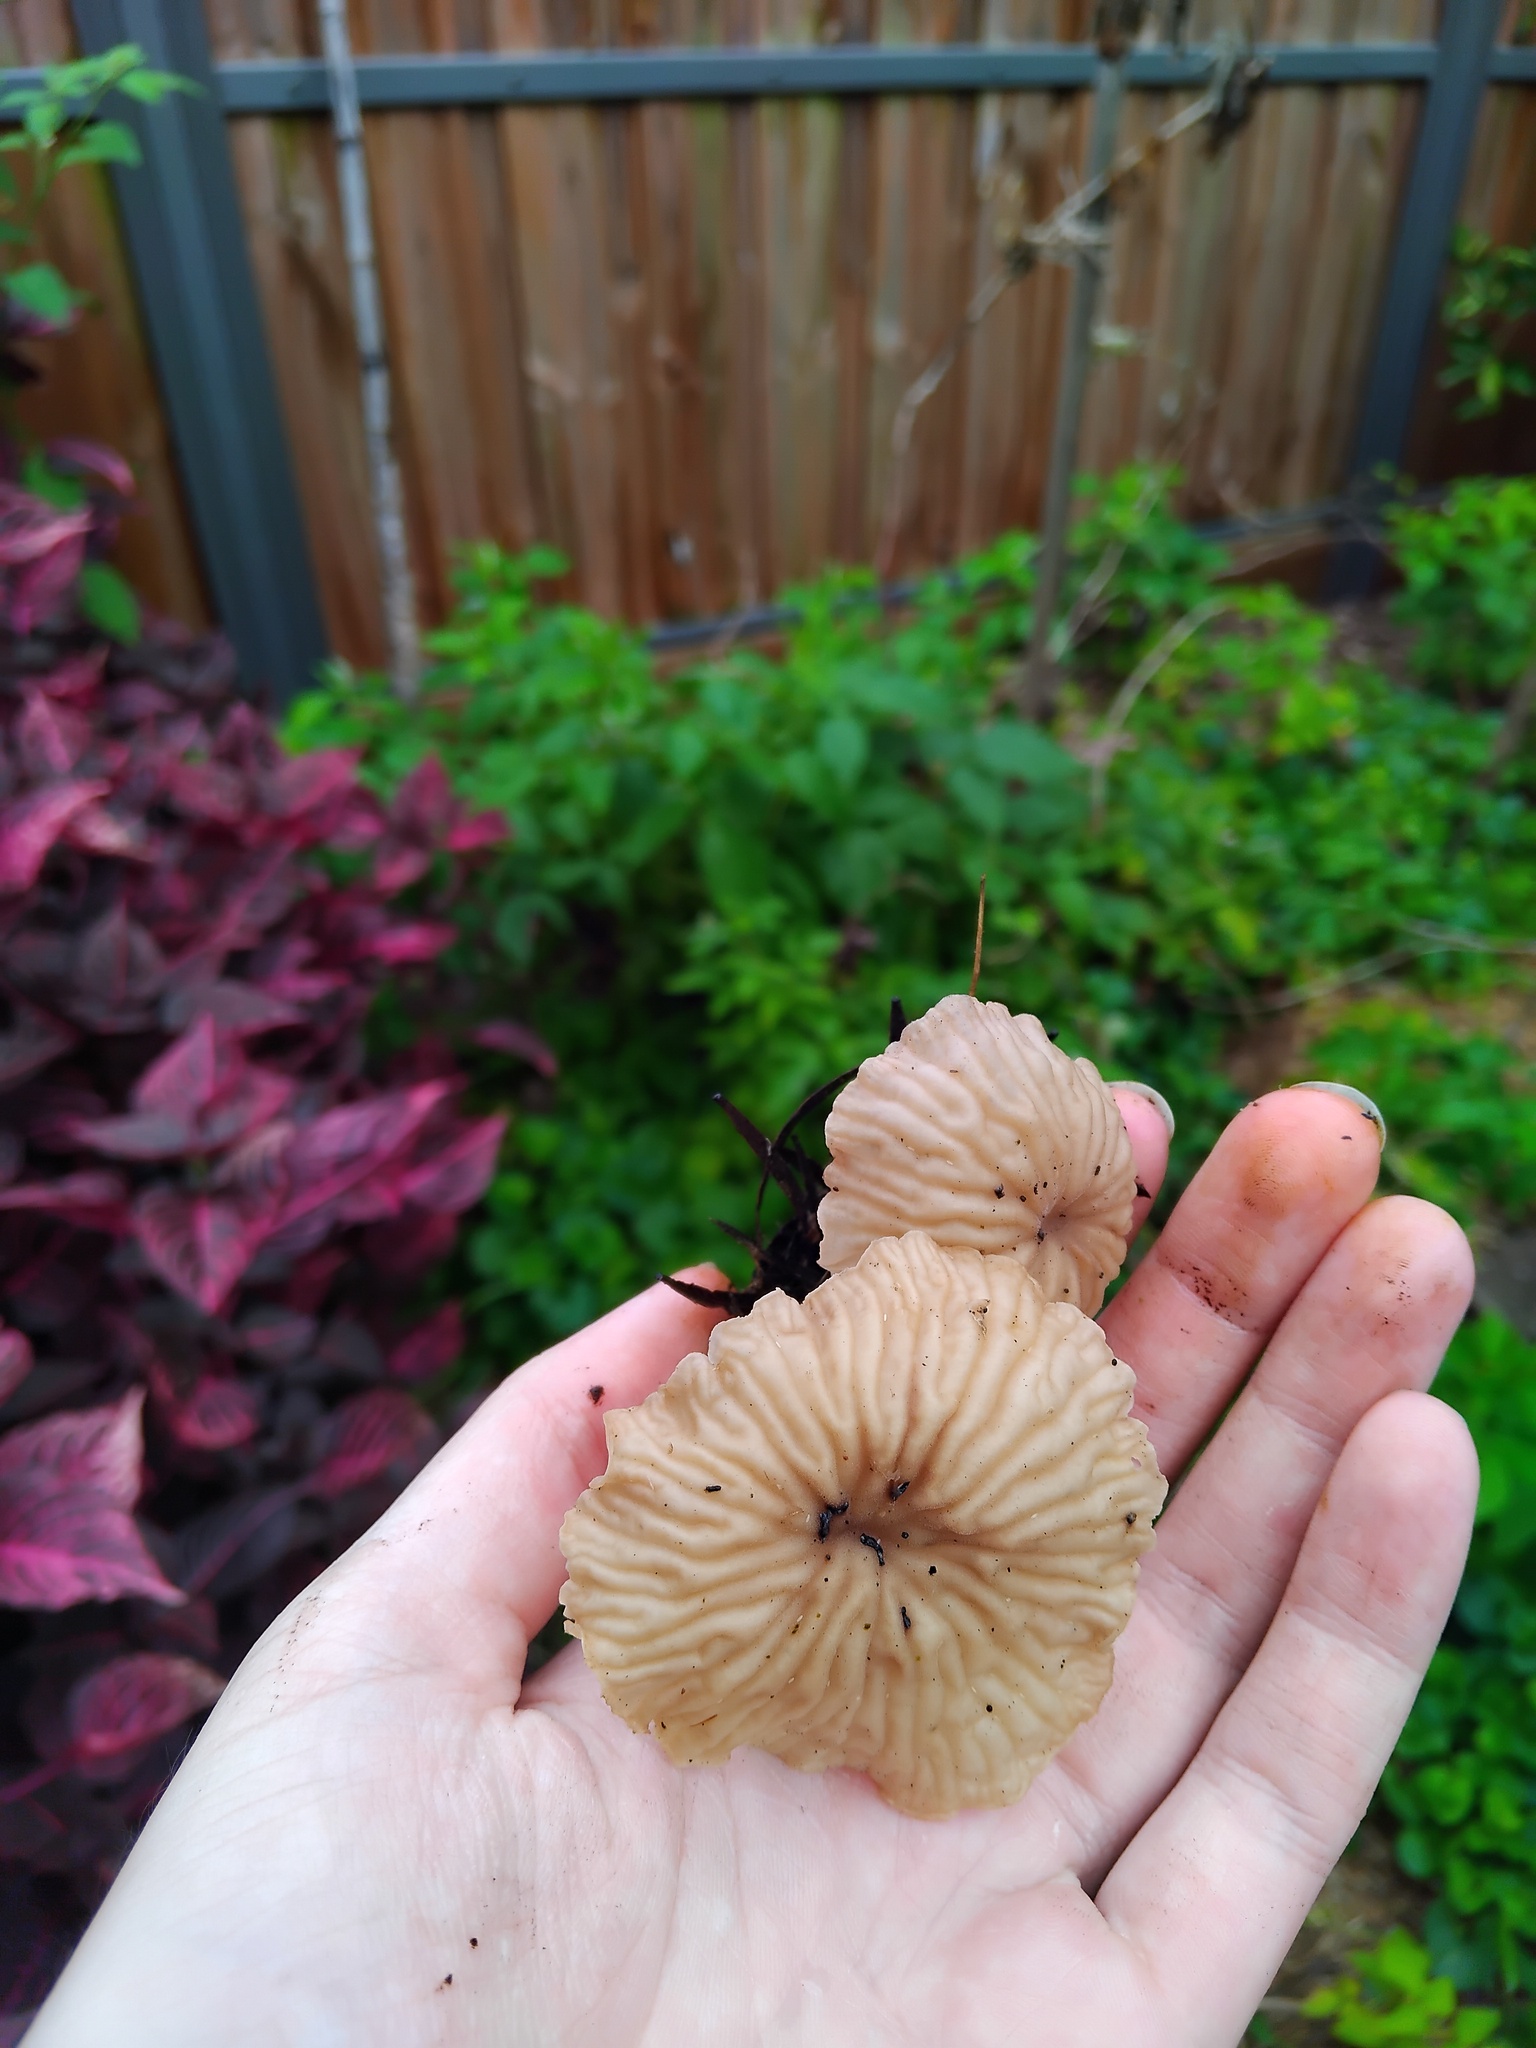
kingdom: Fungi
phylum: Basidiomycota
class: Agaricomycetes
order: Agaricales
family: Tricholomataceae
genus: Collybia
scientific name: Collybia kurara
